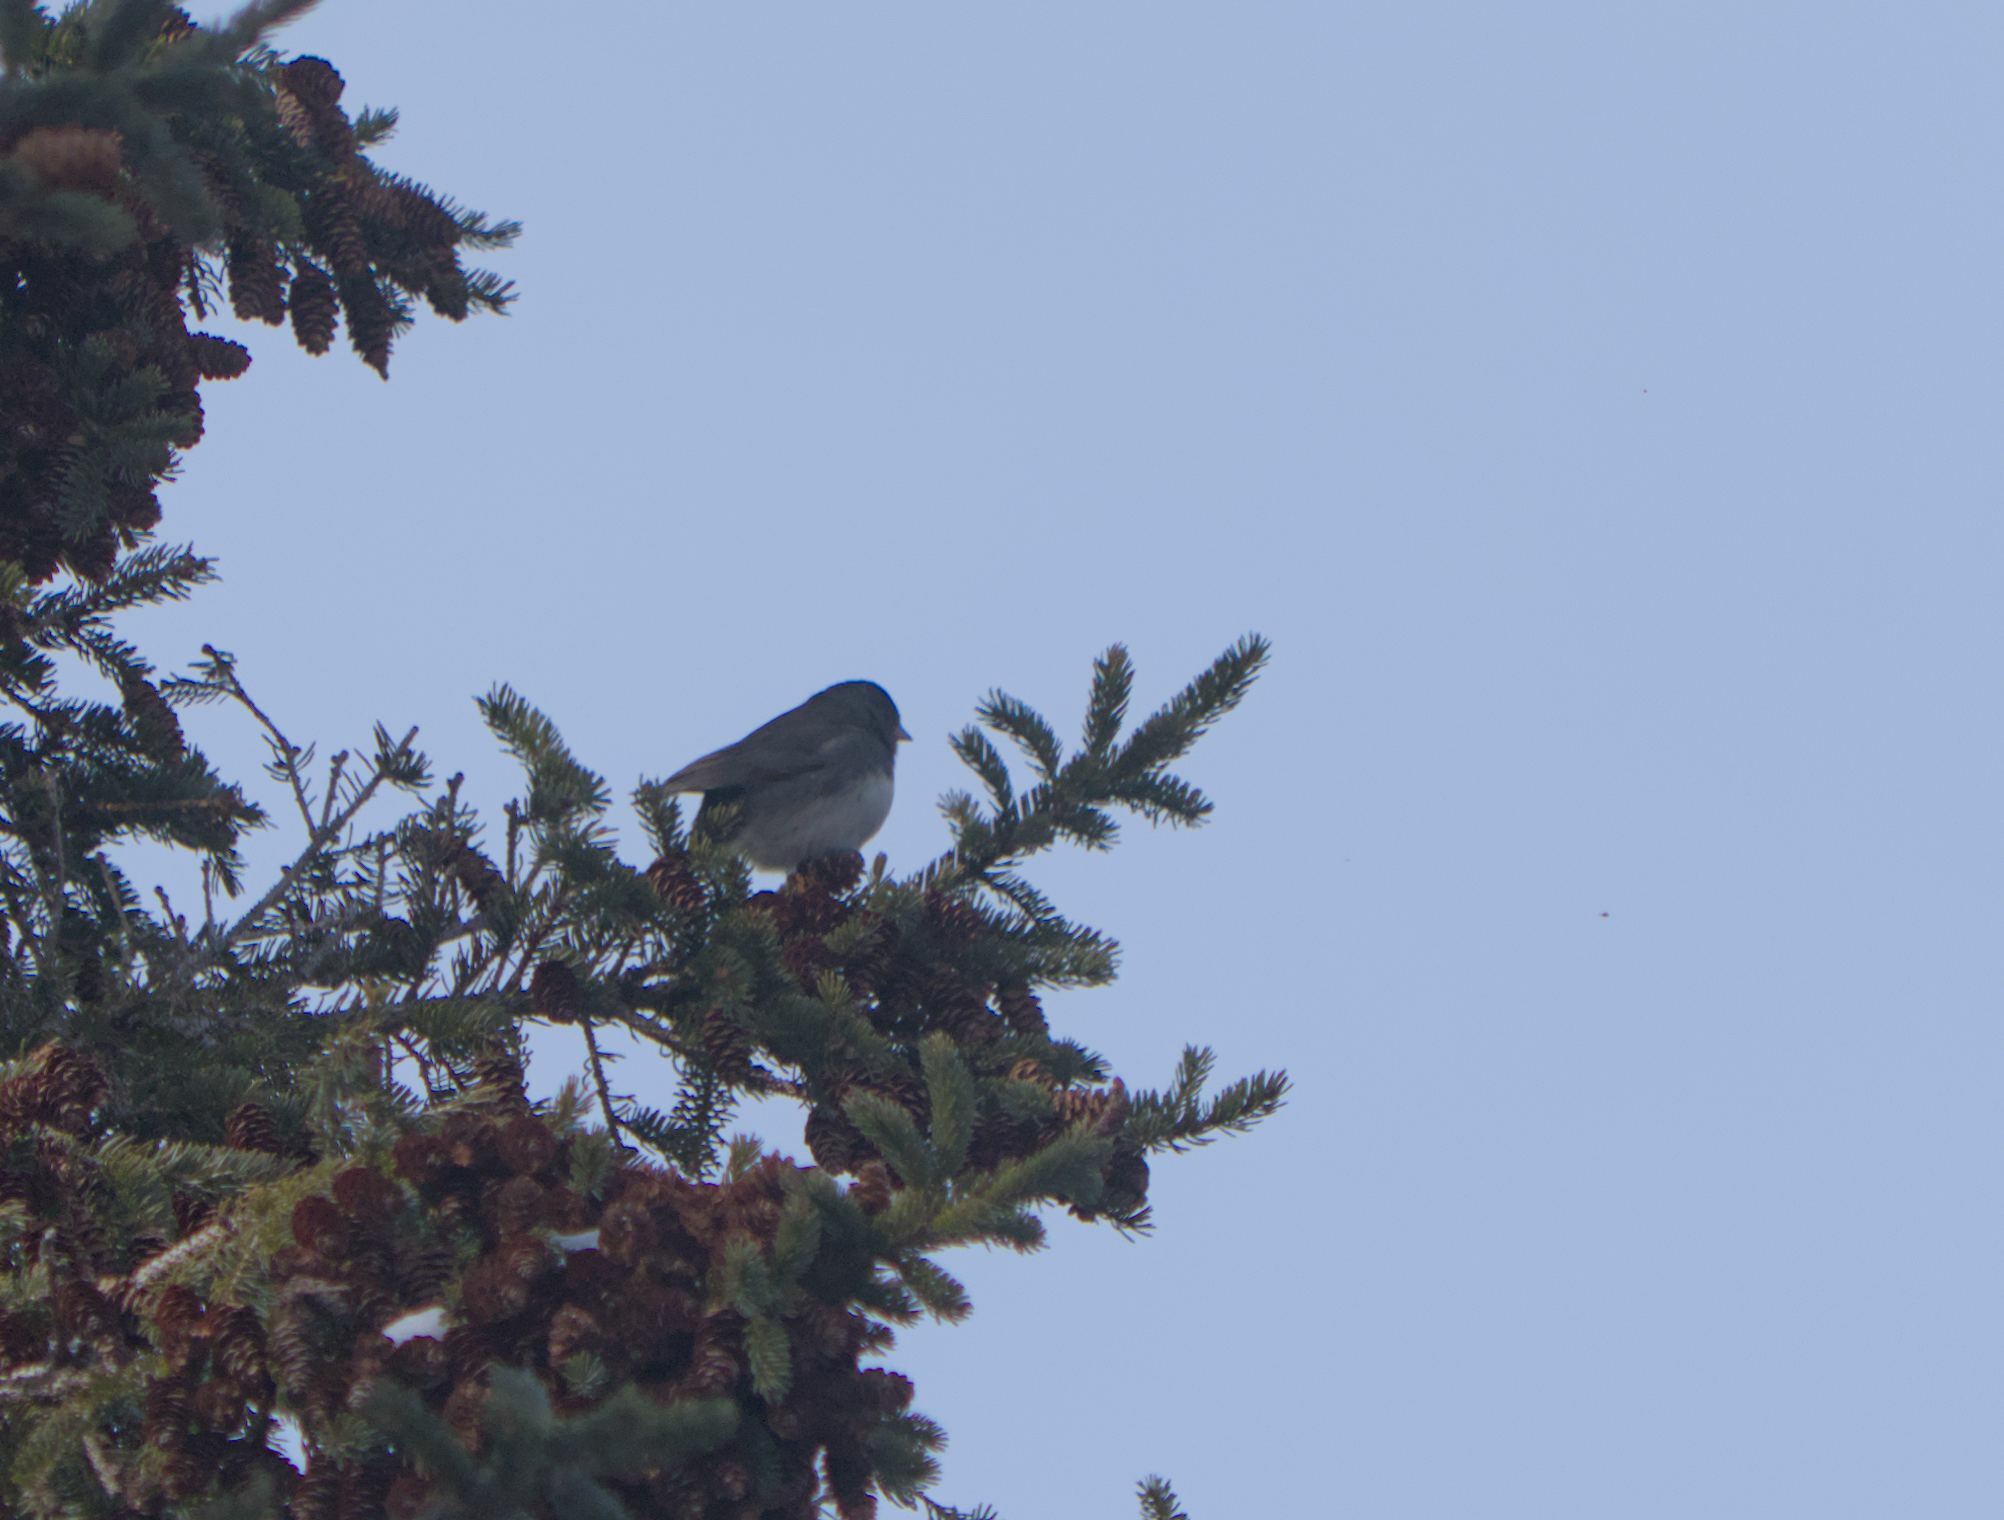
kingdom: Animalia
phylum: Chordata
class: Aves
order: Passeriformes
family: Passerellidae
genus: Junco
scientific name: Junco hyemalis
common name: Dark-eyed junco
